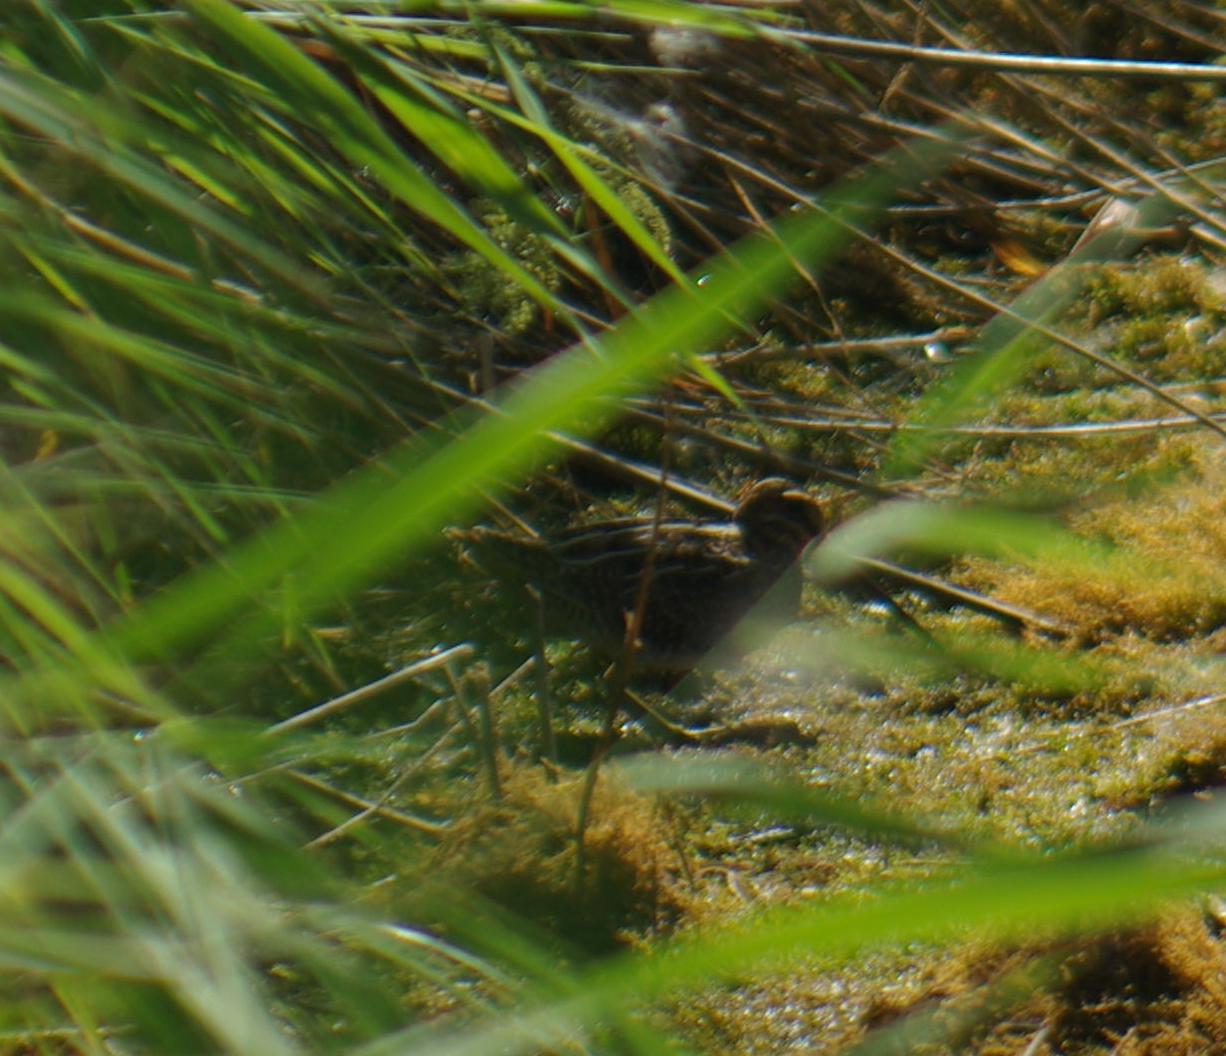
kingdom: Animalia
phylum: Chordata
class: Aves
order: Charadriiformes
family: Scolopacidae
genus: Gallinago
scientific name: Gallinago delicata
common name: Wilson's snipe
